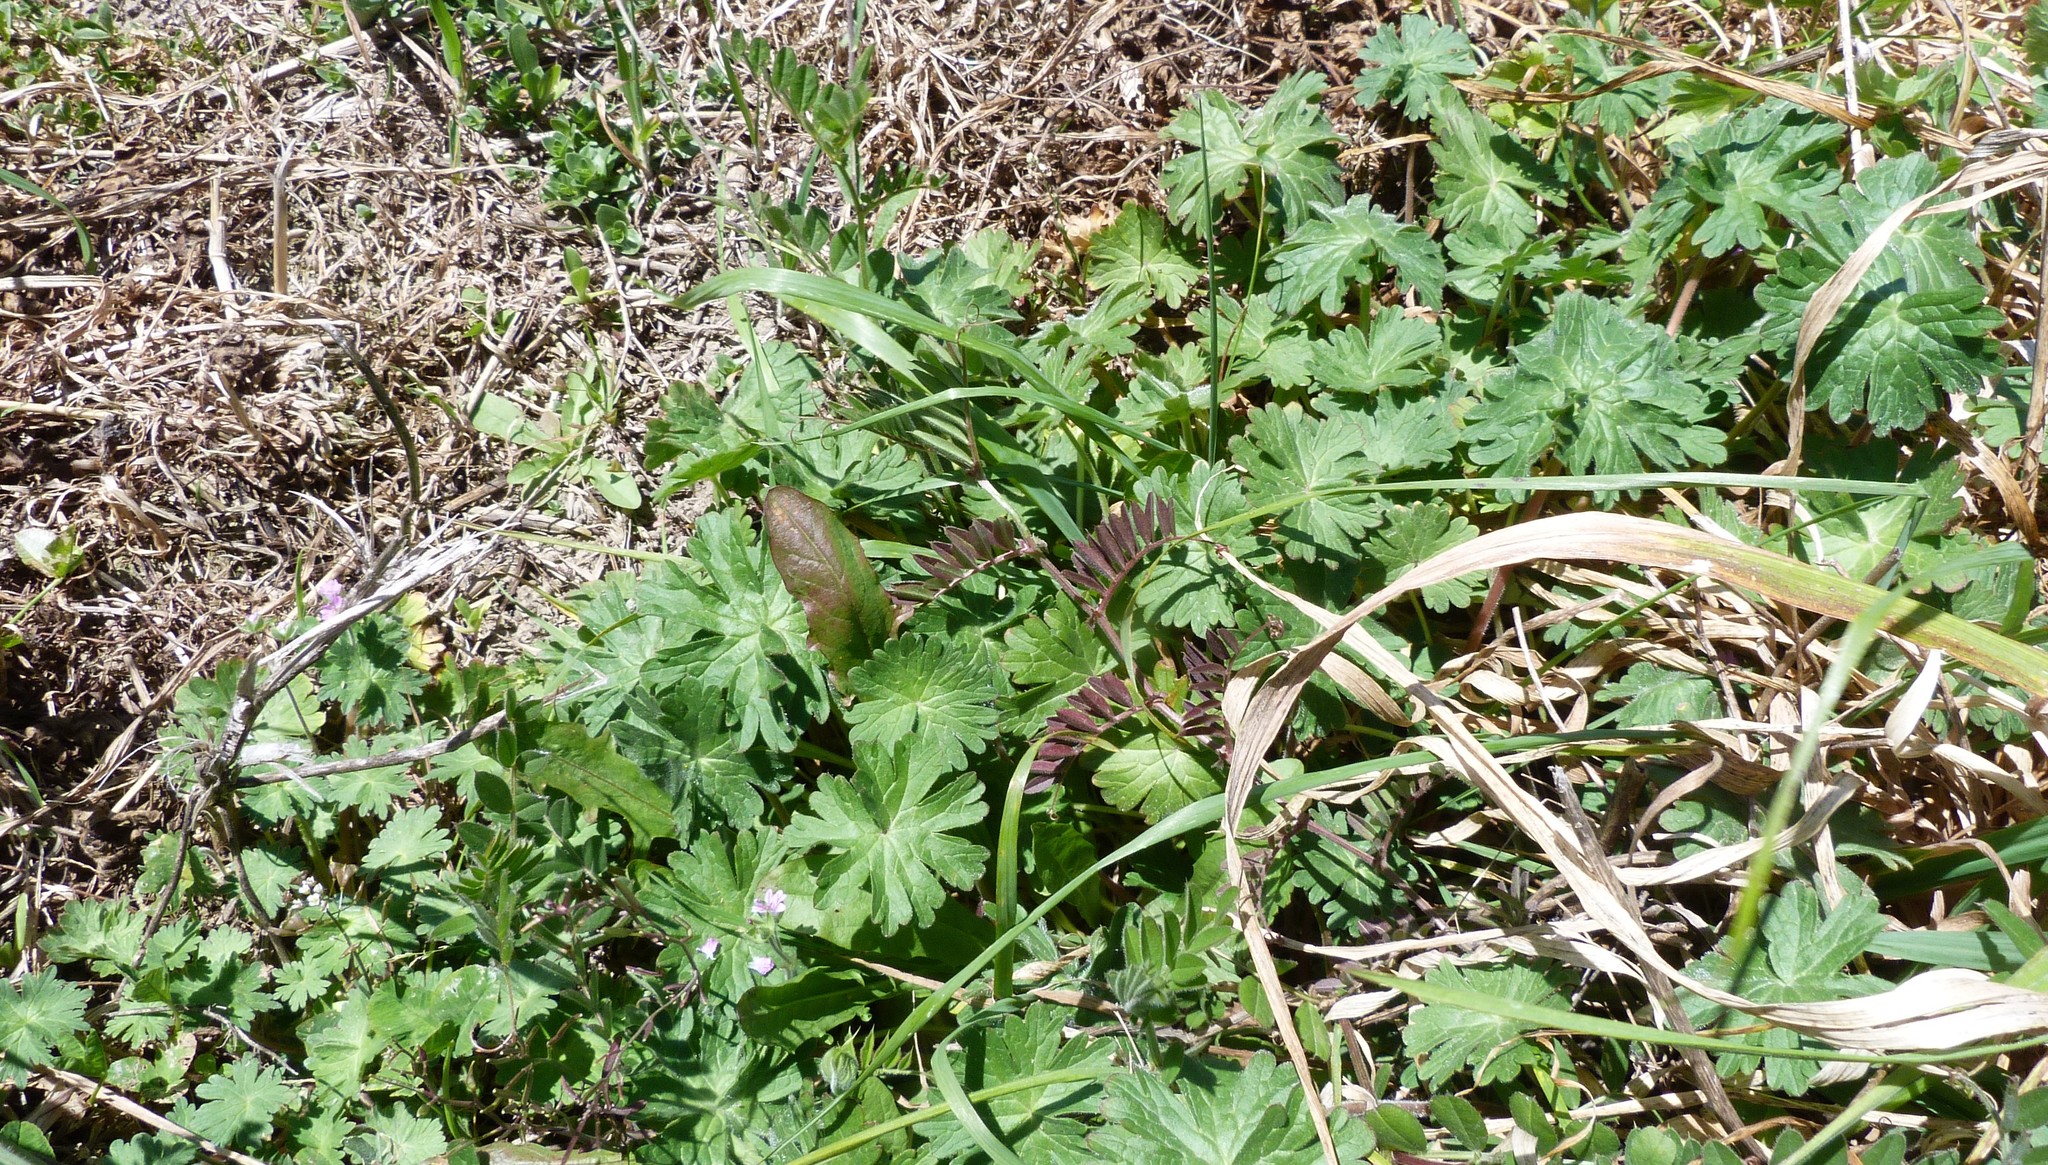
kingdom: Plantae
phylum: Tracheophyta
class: Magnoliopsida
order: Geraniales
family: Geraniaceae
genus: Geranium
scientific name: Geranium retrorsum
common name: New zealand geranium
